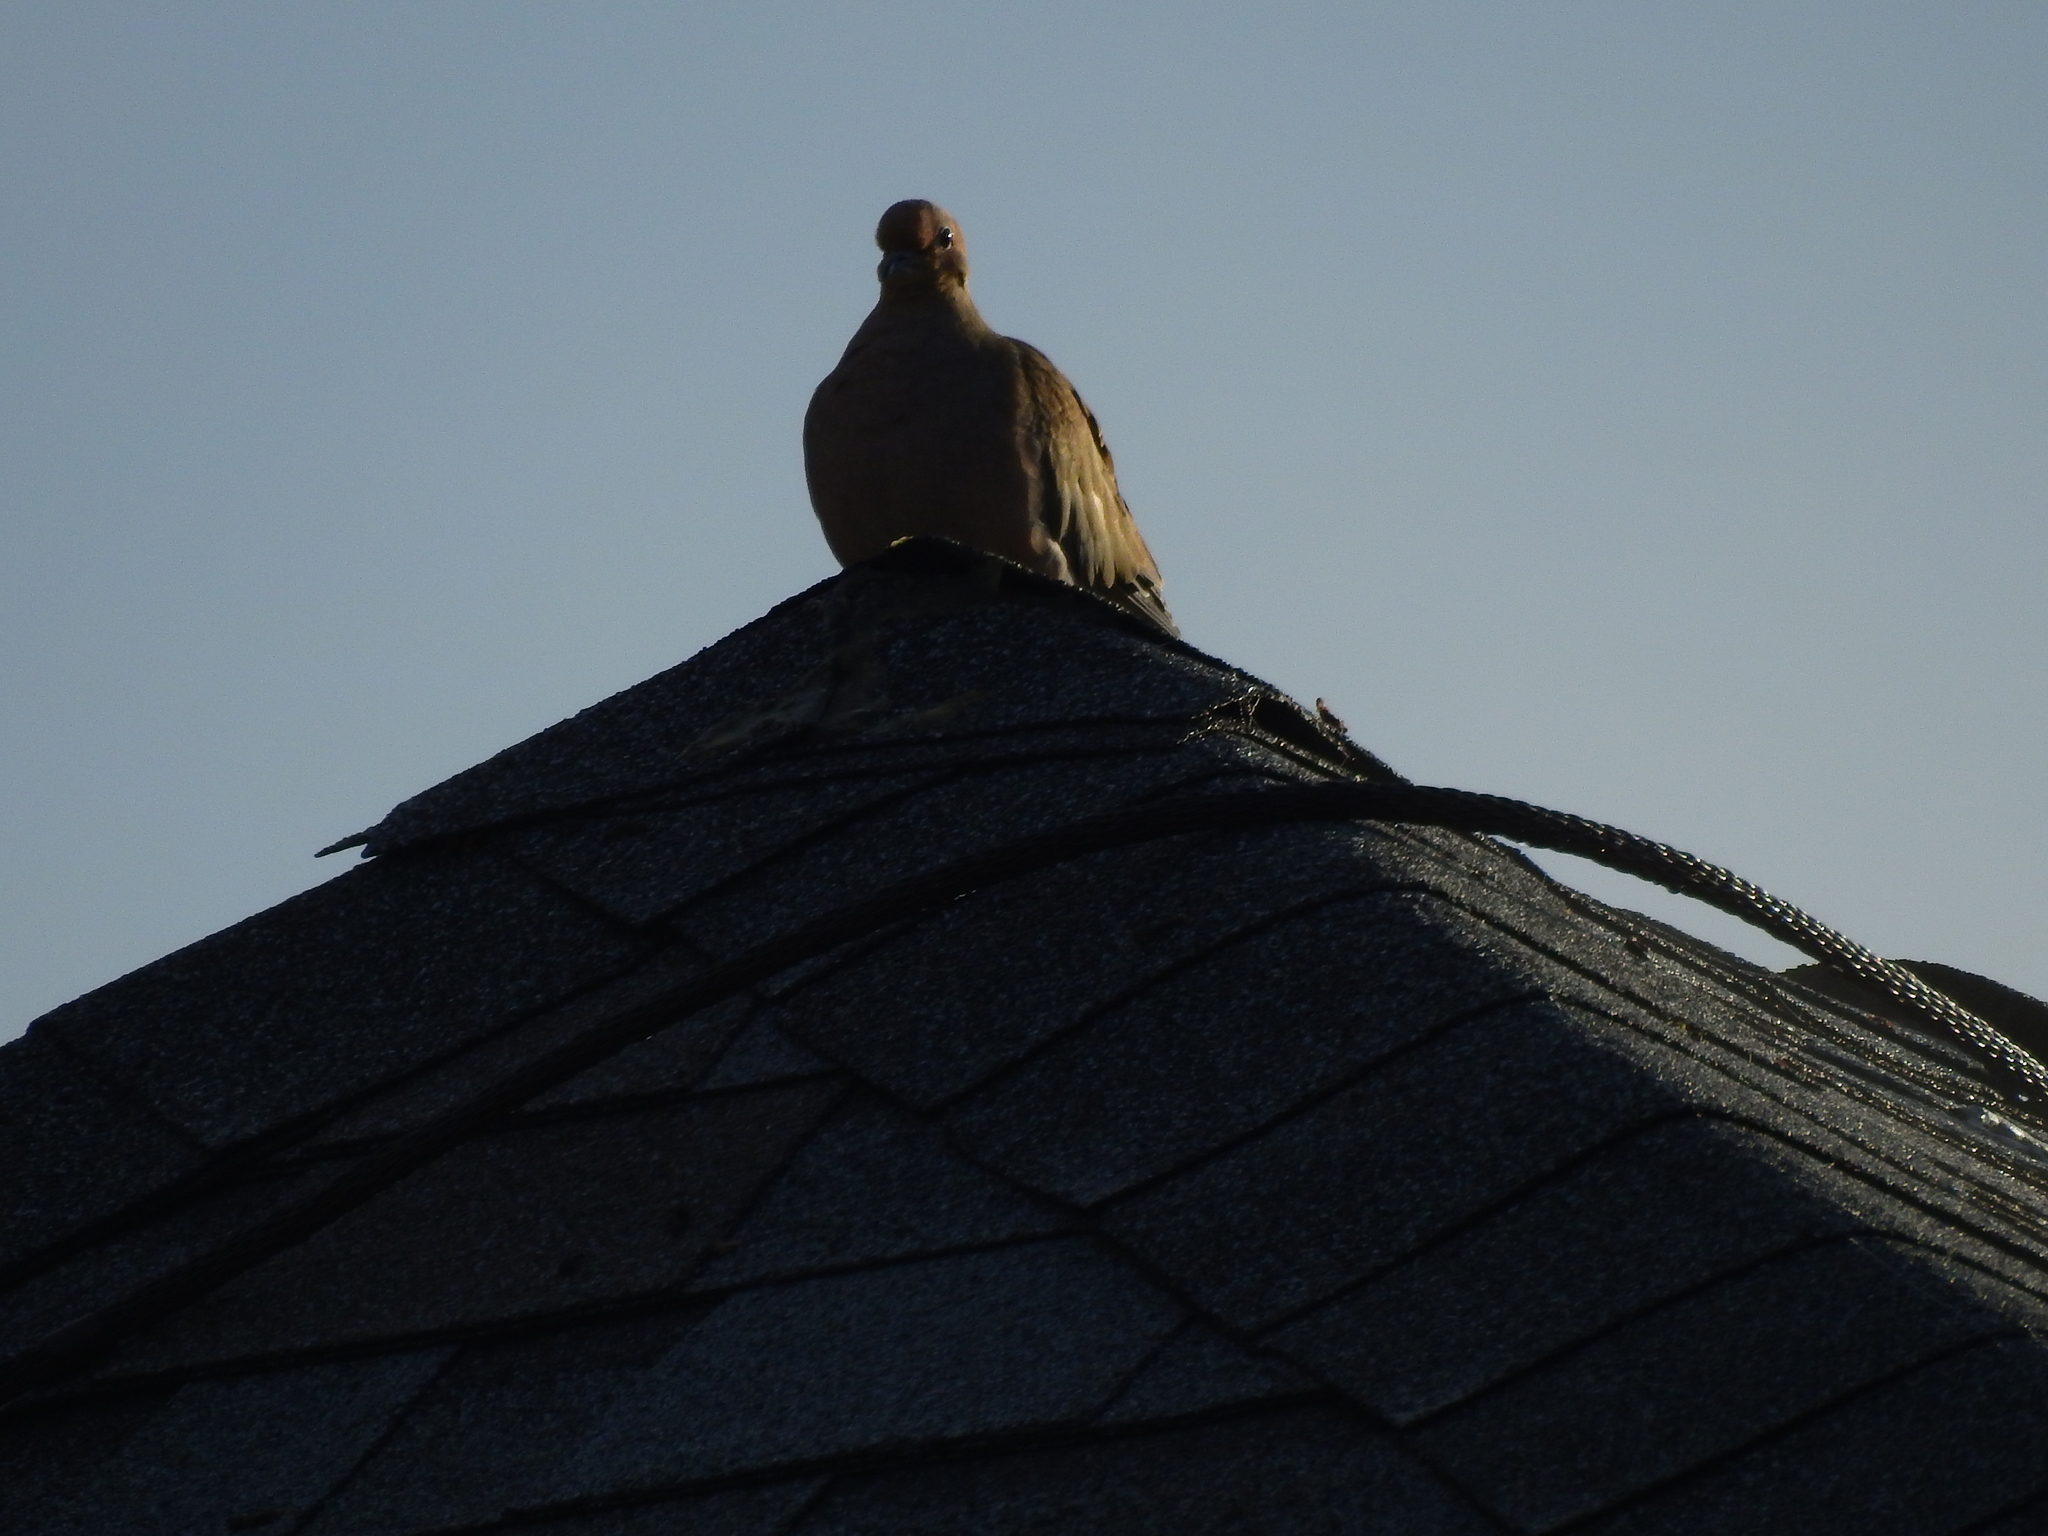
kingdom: Animalia
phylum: Chordata
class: Aves
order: Columbiformes
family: Columbidae
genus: Zenaida
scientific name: Zenaida macroura
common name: Mourning dove
